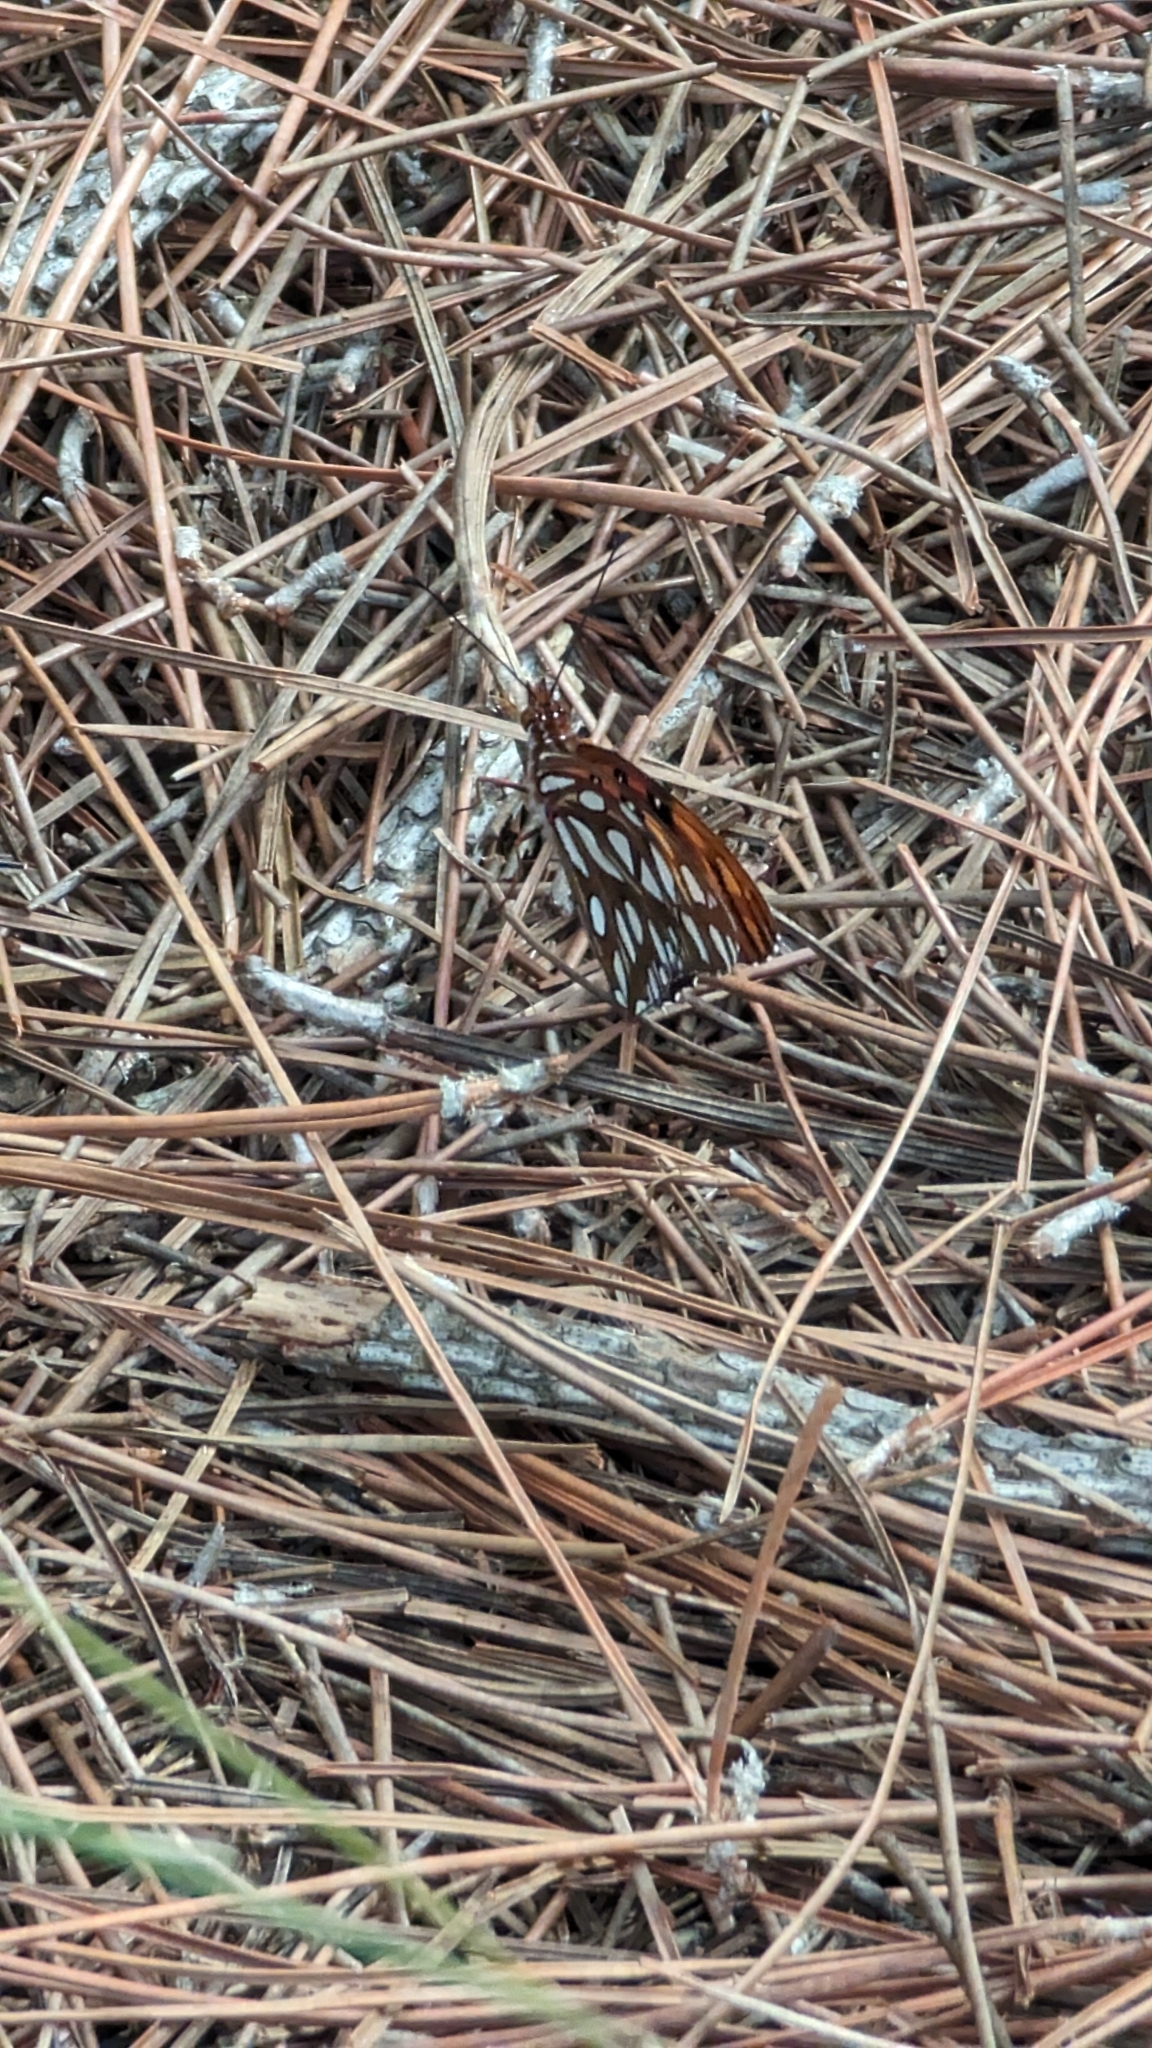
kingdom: Animalia
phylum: Arthropoda
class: Insecta
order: Lepidoptera
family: Nymphalidae
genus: Dione
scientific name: Dione vanillae
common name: Gulf fritillary
